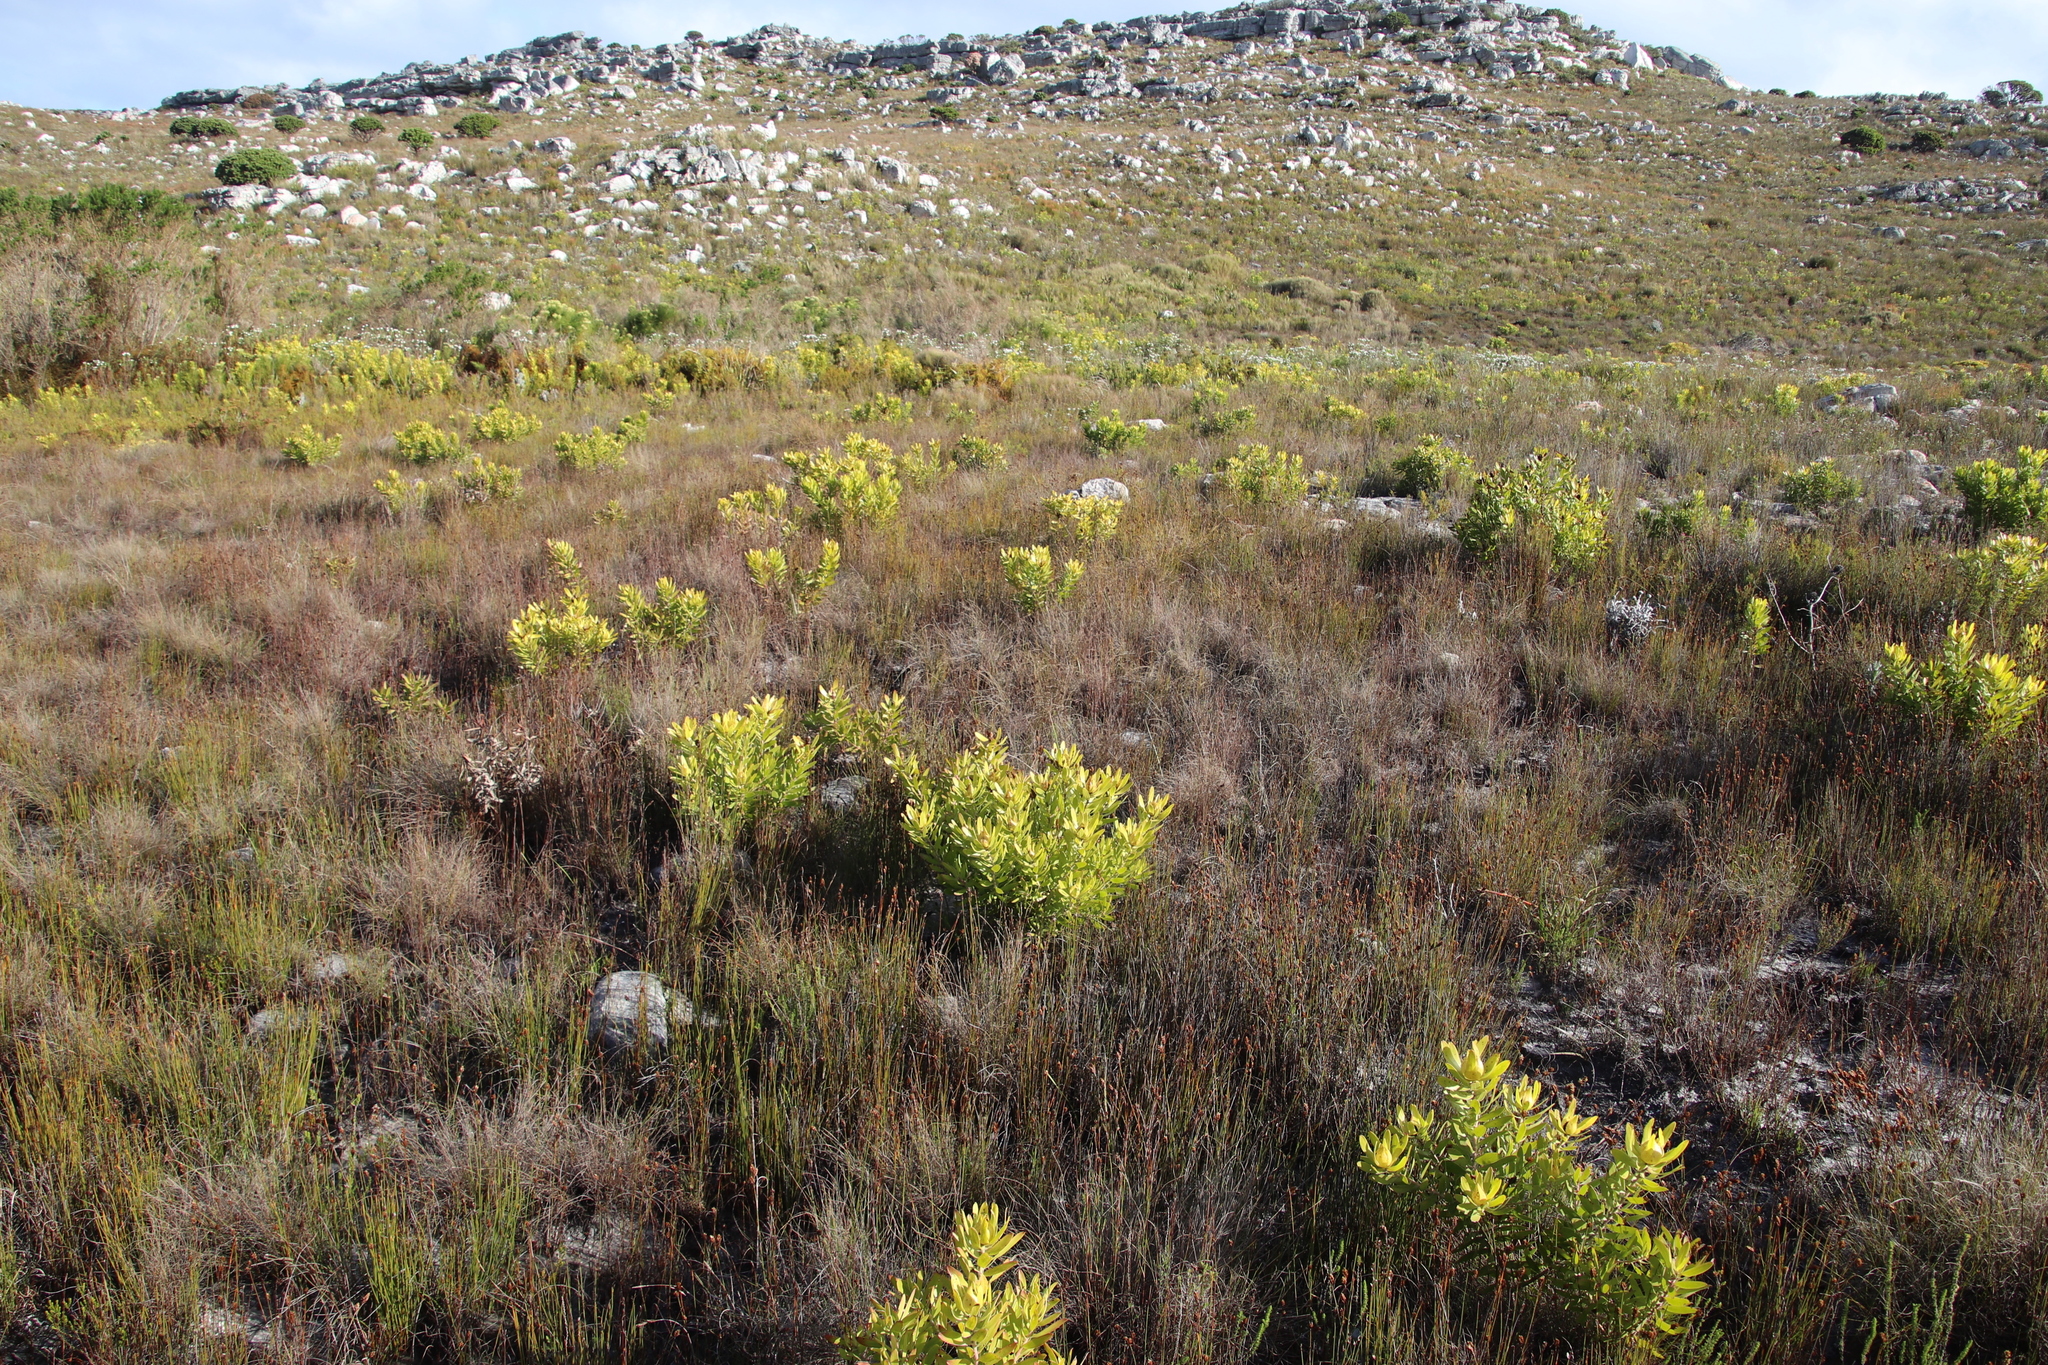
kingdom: Plantae
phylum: Tracheophyta
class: Magnoliopsida
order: Proteales
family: Proteaceae
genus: Leucadendron
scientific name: Leucadendron laureolum
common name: Golden sunshinebush
